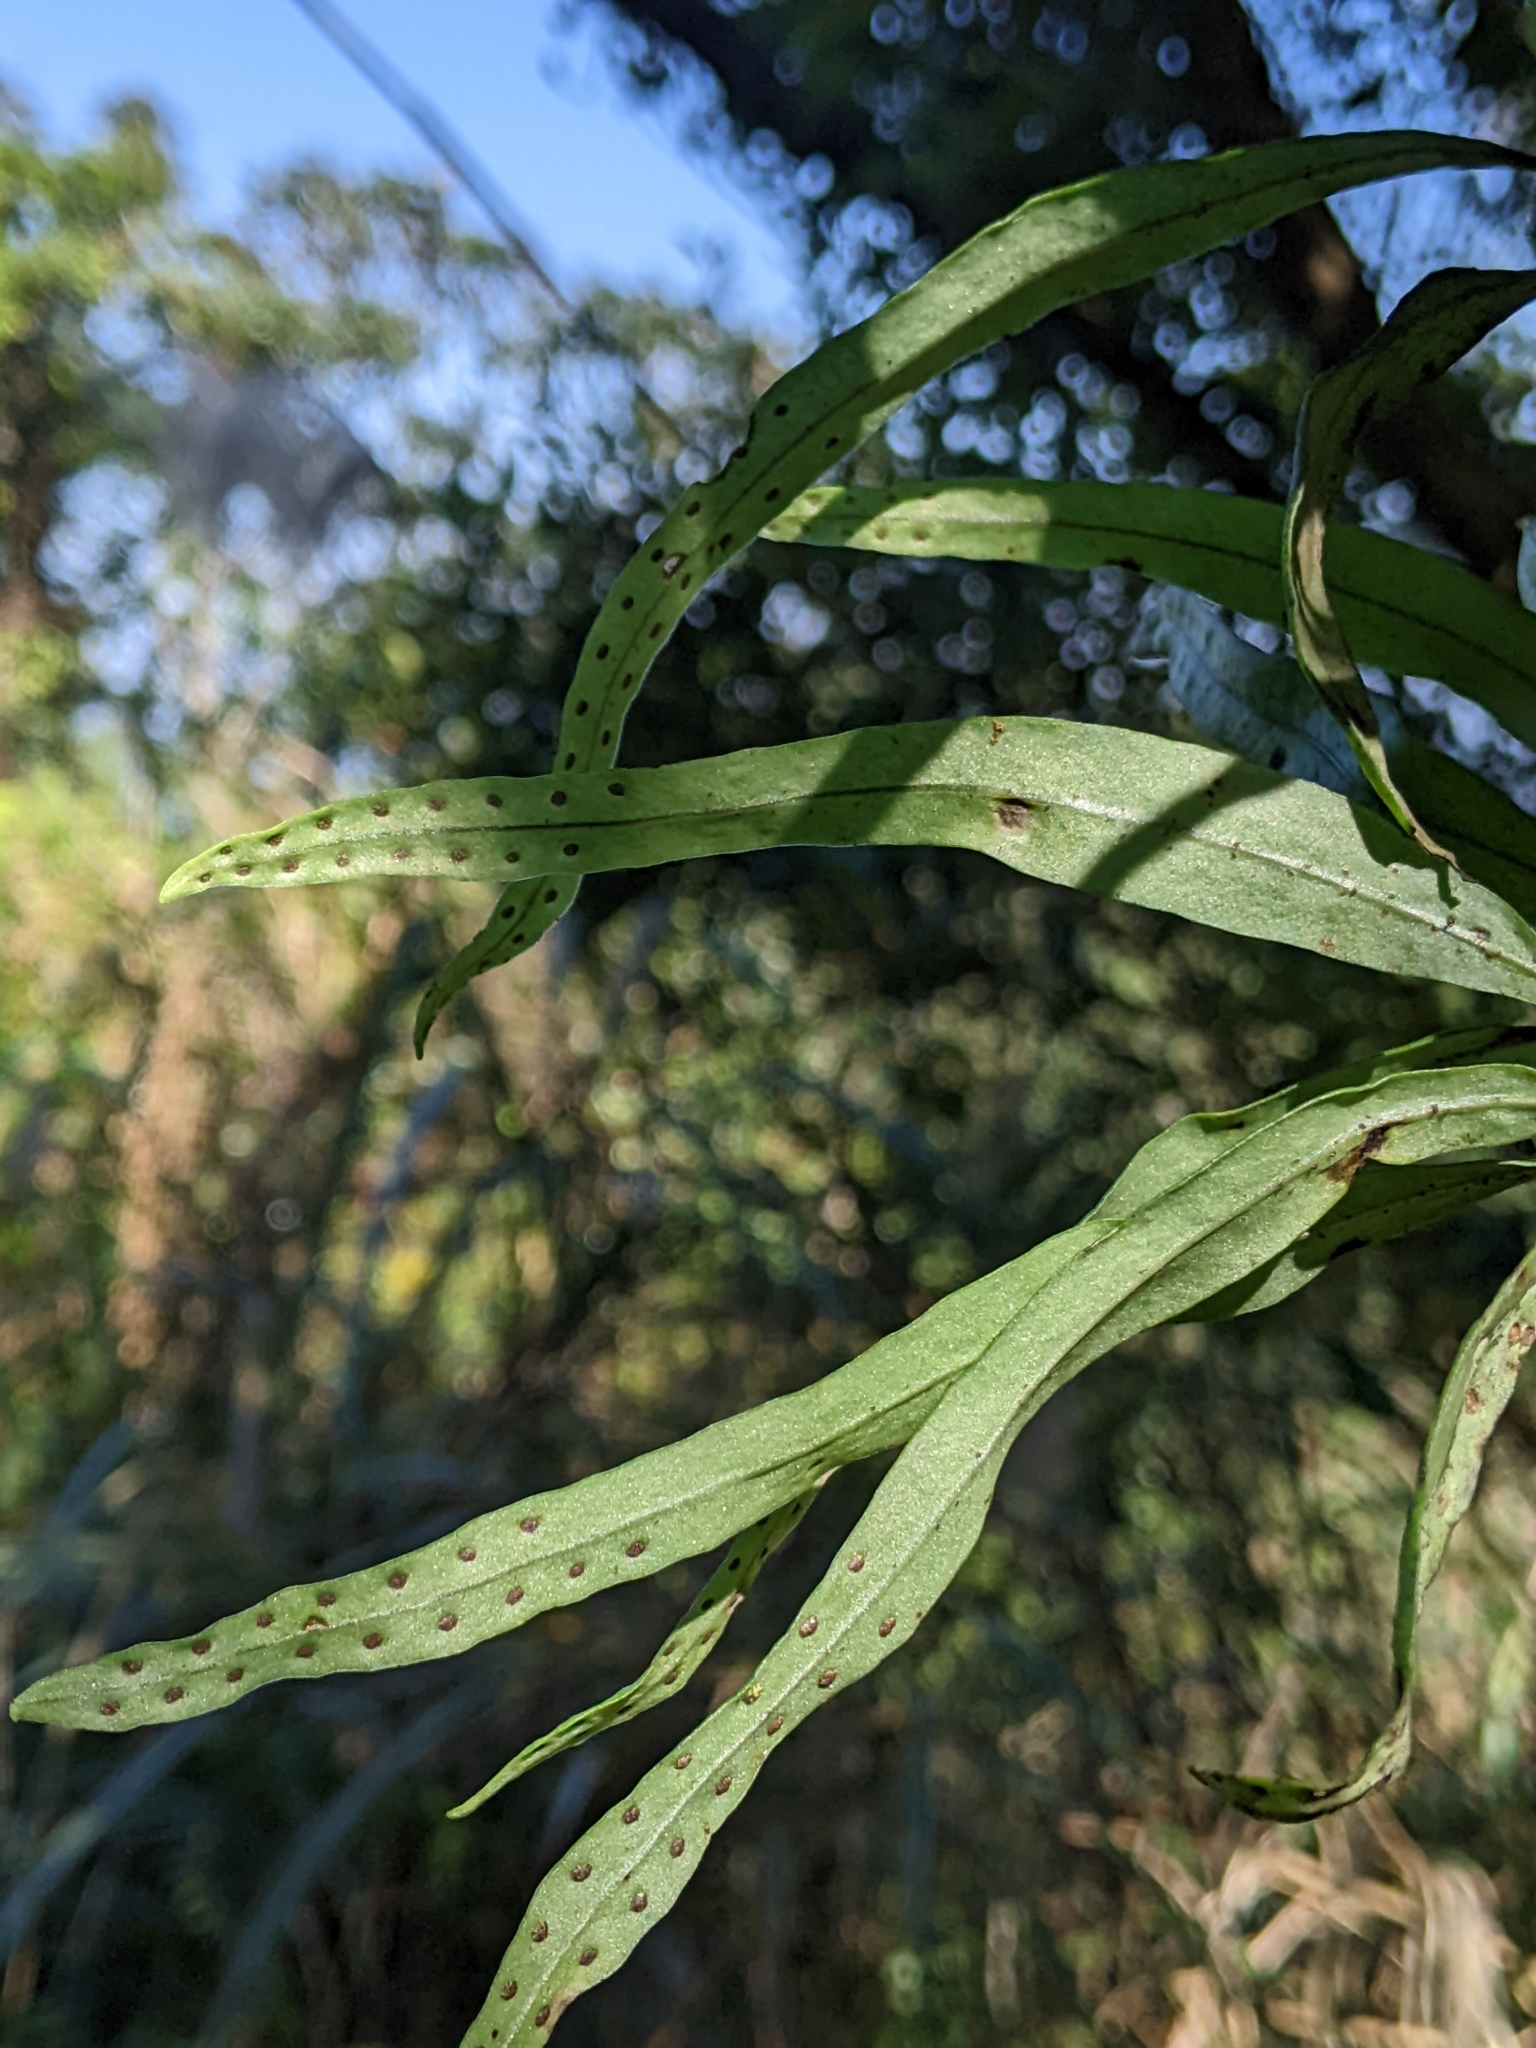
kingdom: Plantae
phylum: Tracheophyta
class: Polypodiopsida
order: Polypodiales
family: Polypodiaceae
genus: Lepisorus
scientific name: Lepisorus thunbergianus
